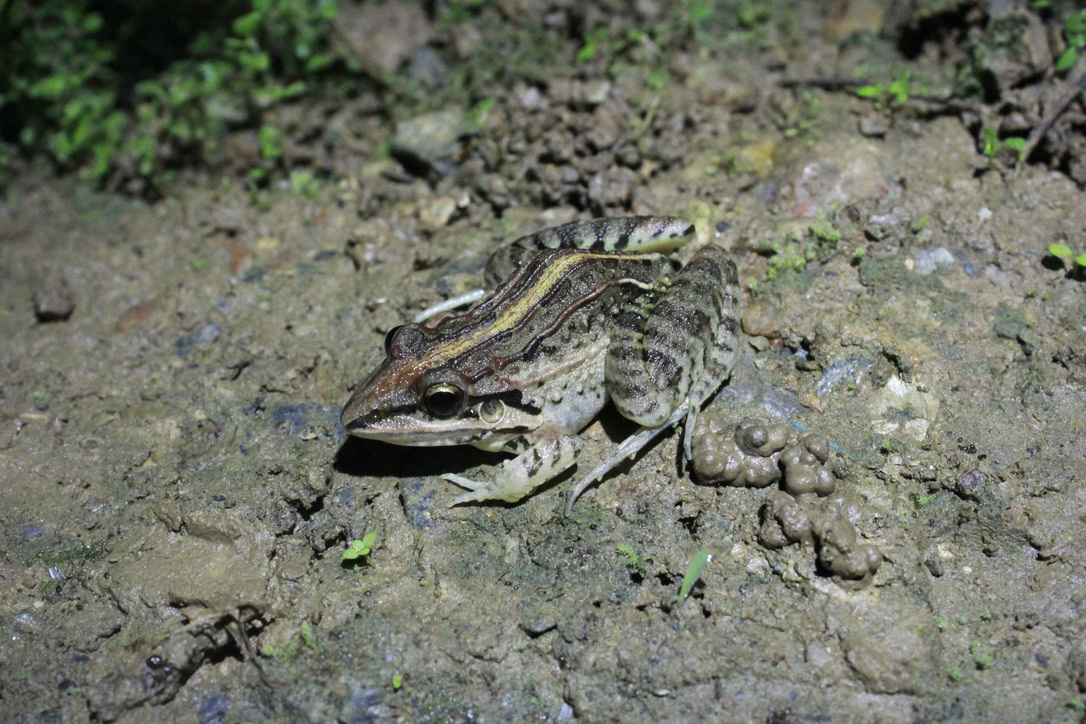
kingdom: Animalia
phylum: Chordata
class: Amphibia
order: Anura
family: Leptodactylidae
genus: Leptodactylus
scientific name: Leptodactylus fuscus
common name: Rufous frog
